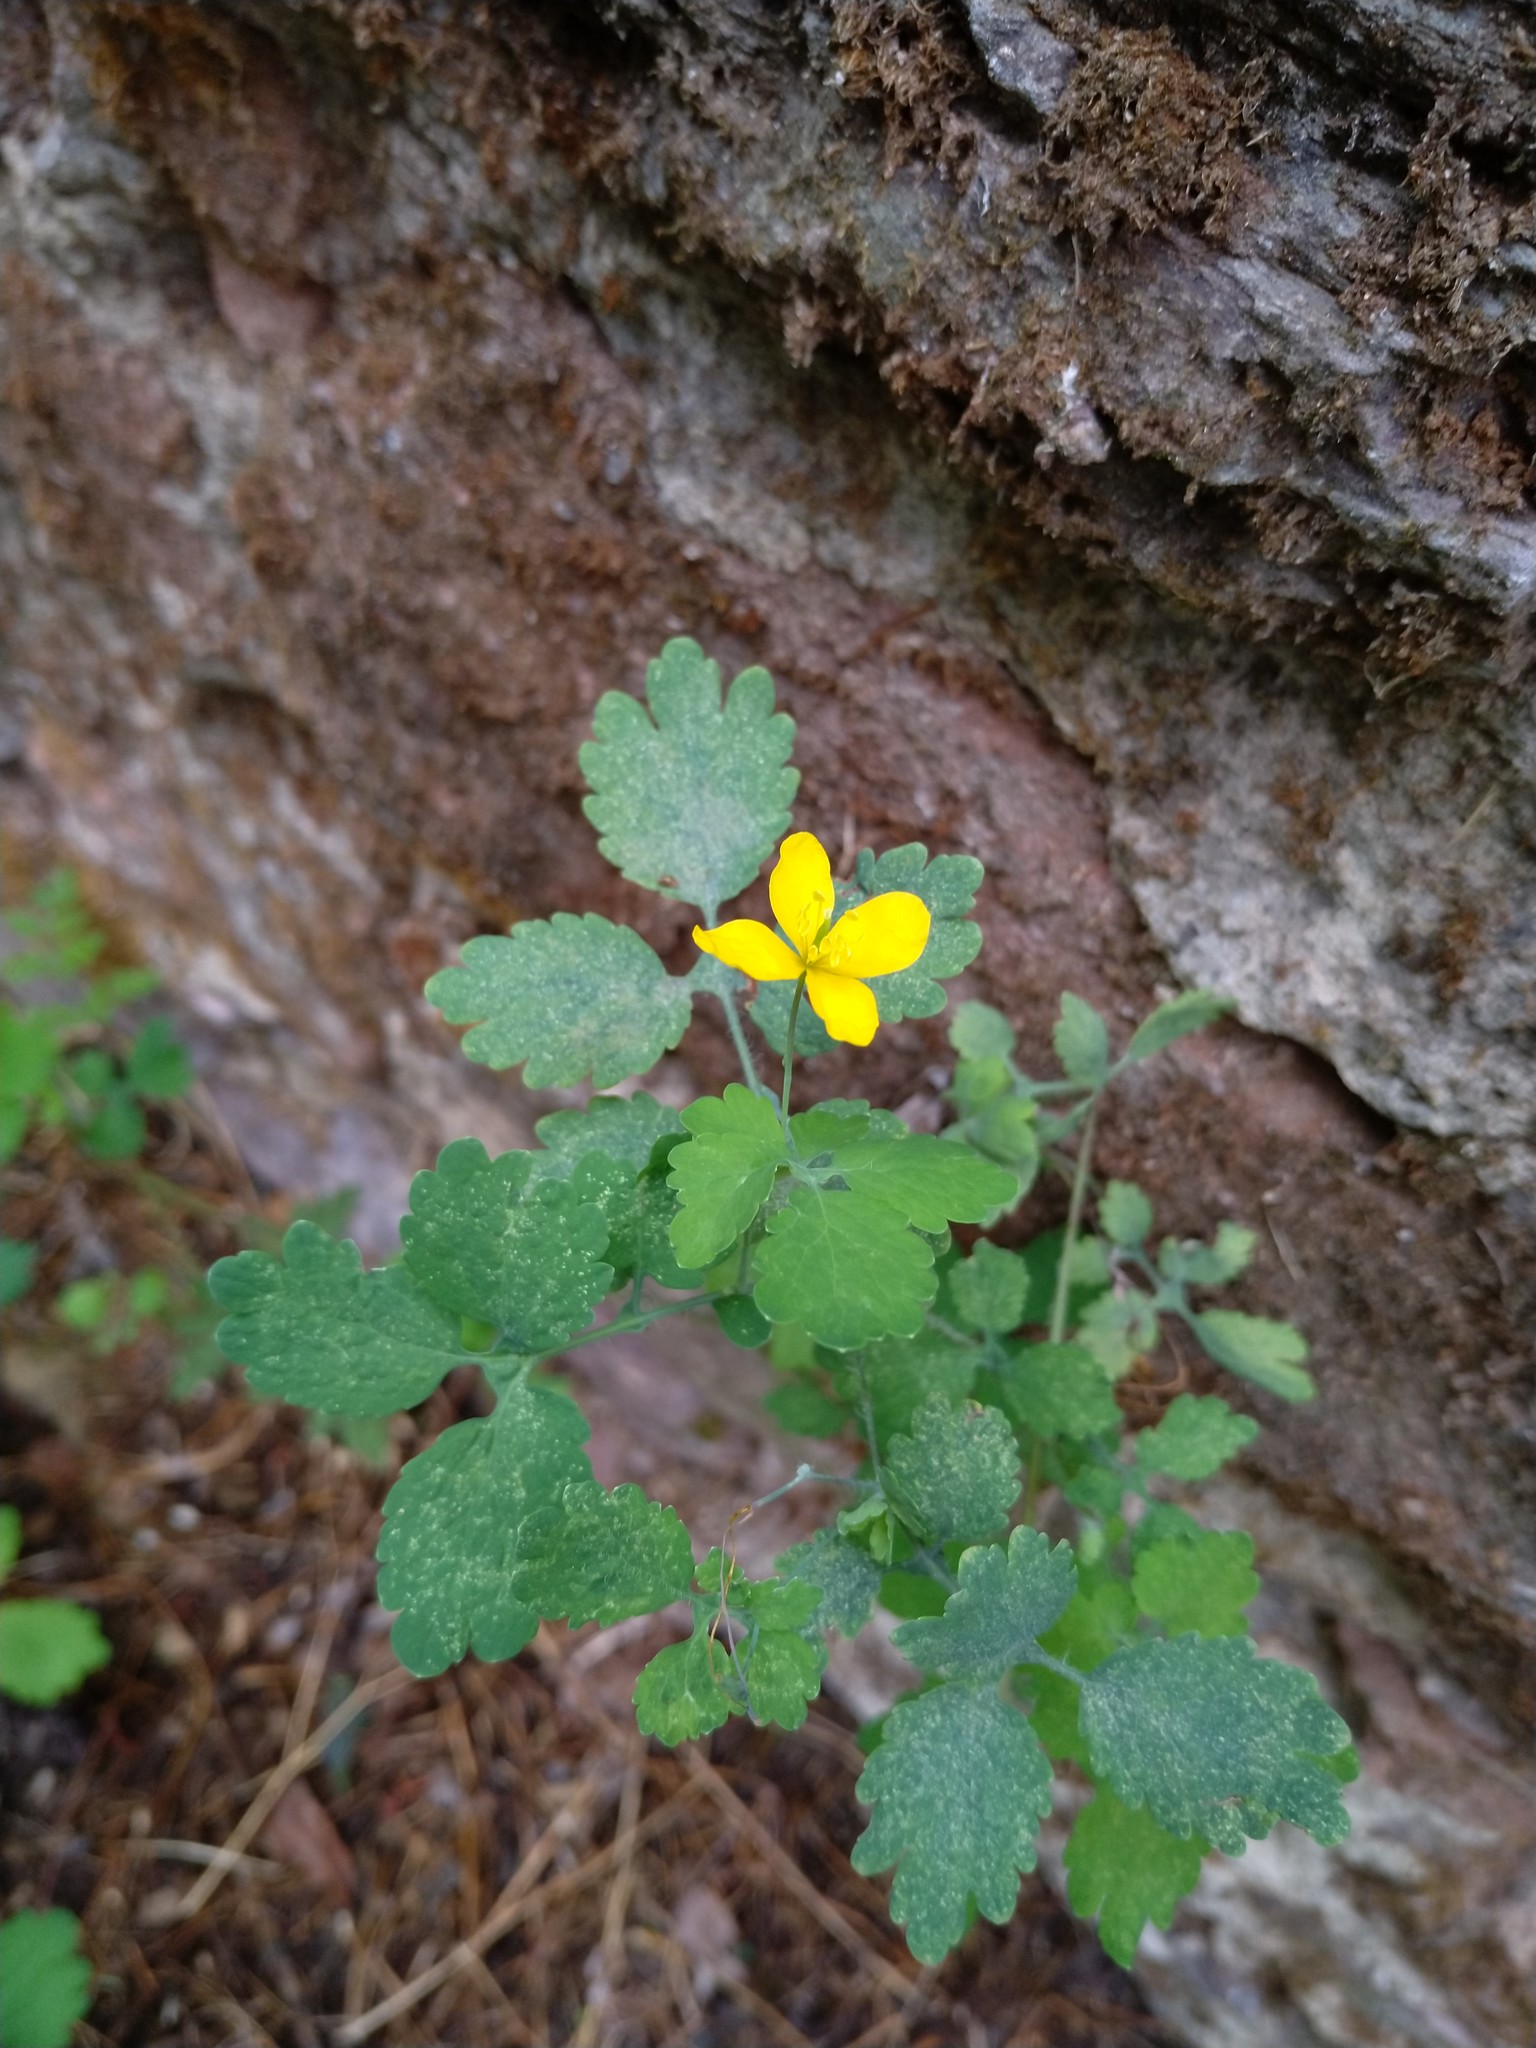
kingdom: Plantae
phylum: Tracheophyta
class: Magnoliopsida
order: Ranunculales
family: Papaveraceae
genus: Chelidonium
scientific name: Chelidonium majus
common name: Greater celandine
